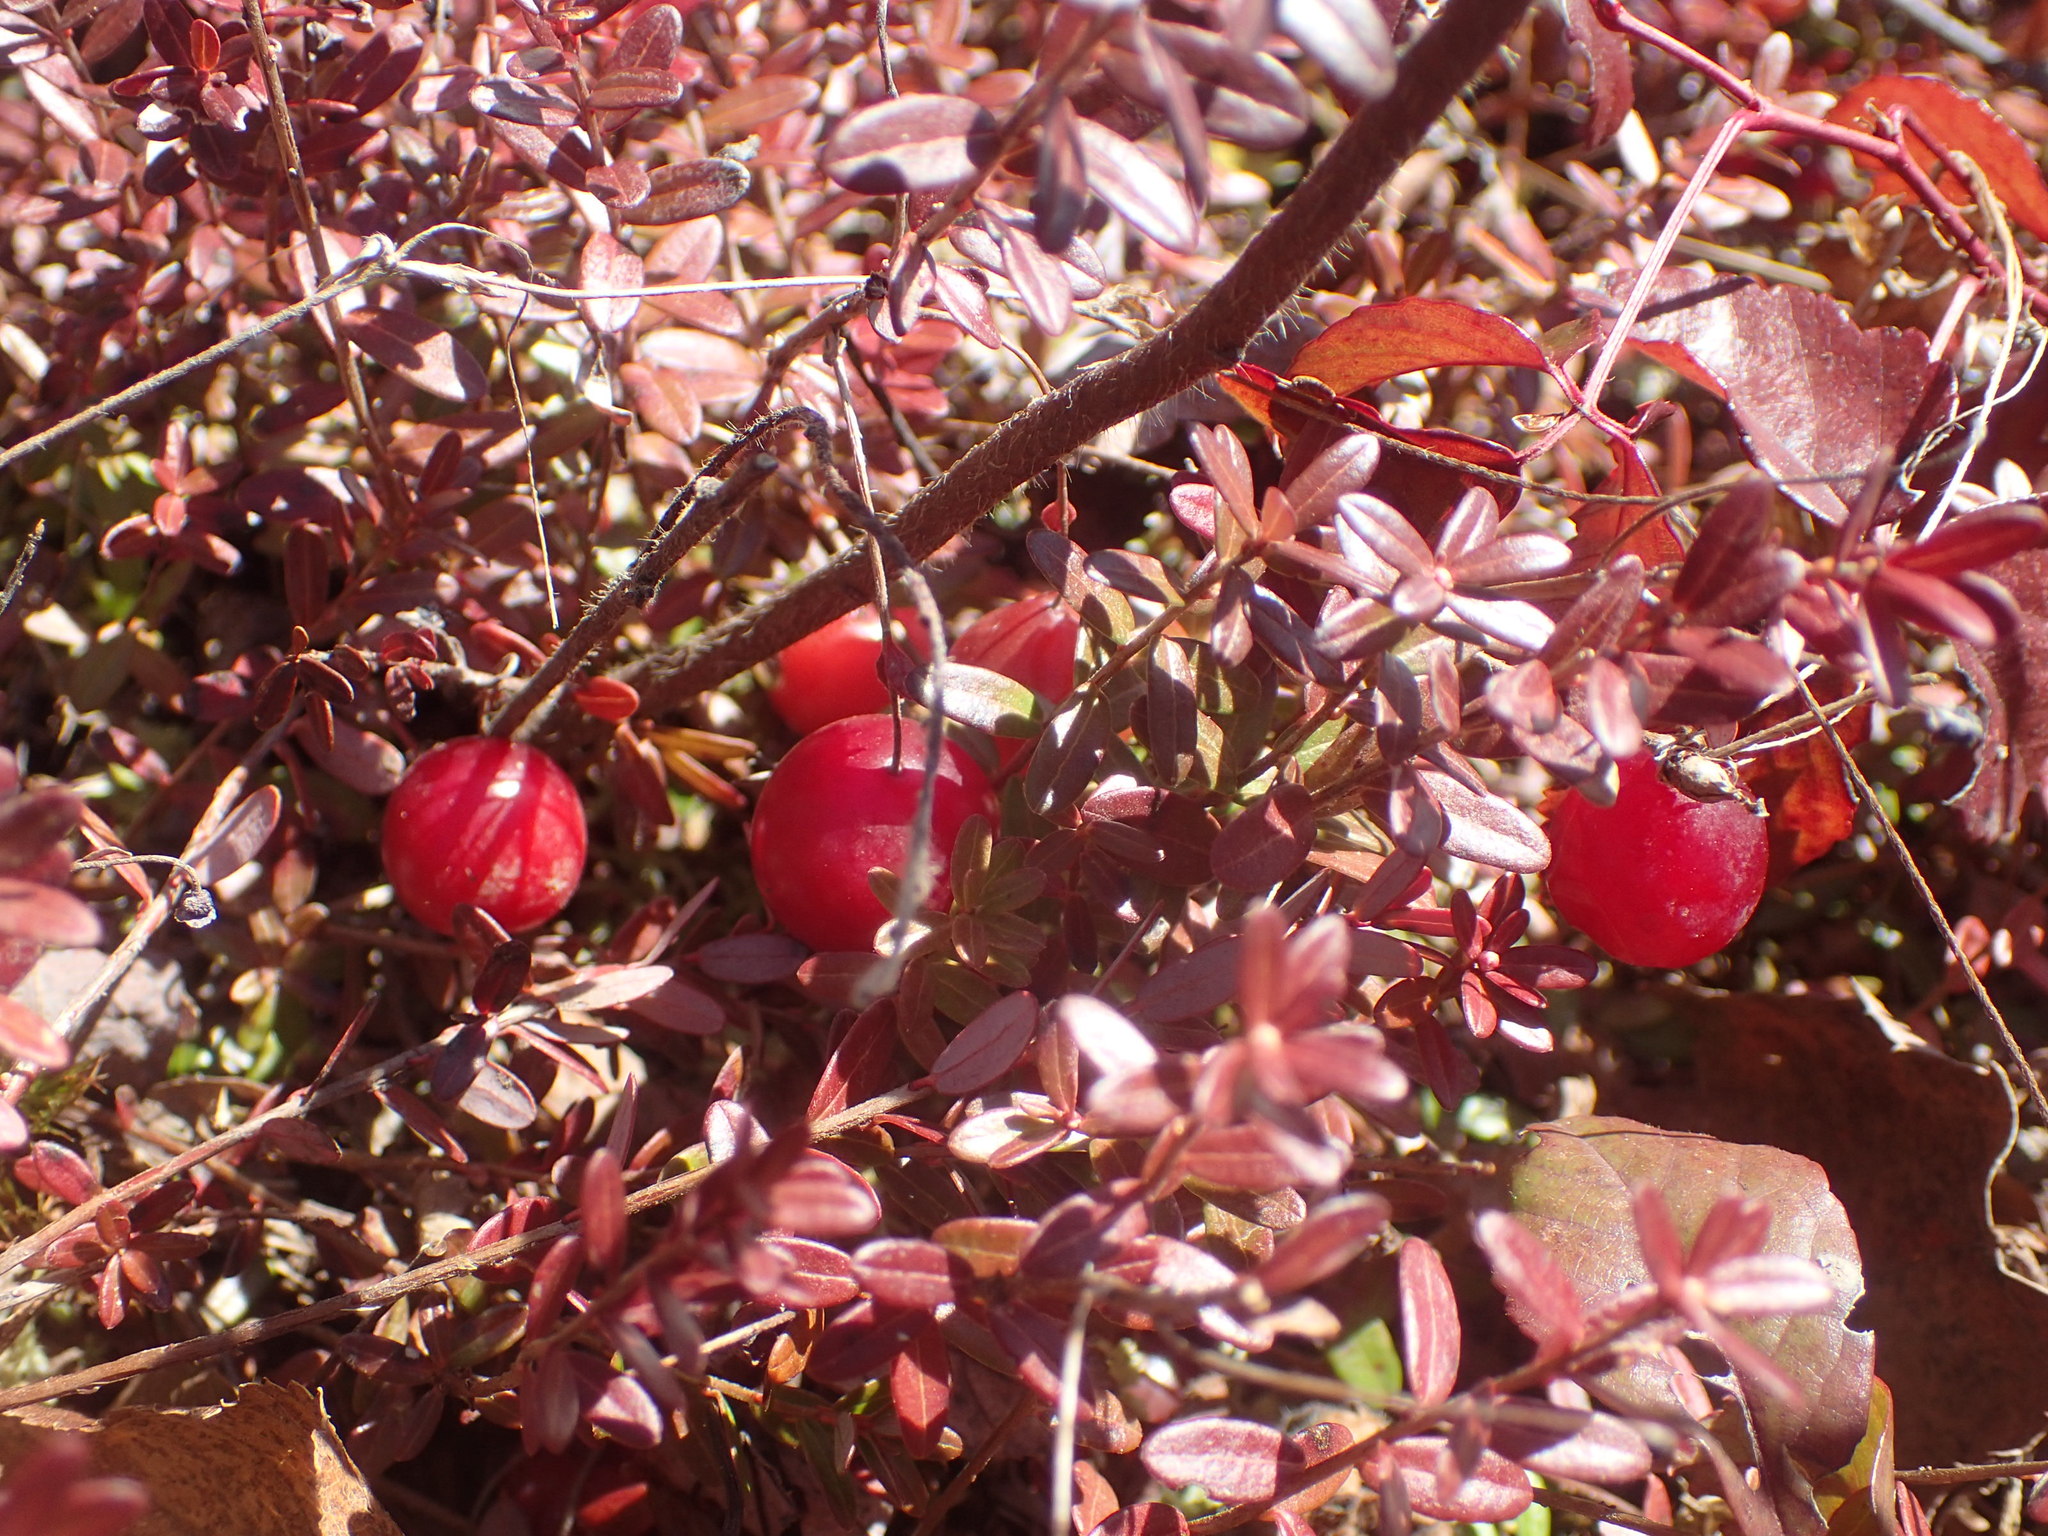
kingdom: Plantae
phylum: Tracheophyta
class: Magnoliopsida
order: Ericales
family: Ericaceae
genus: Vaccinium
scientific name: Vaccinium macrocarpon
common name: American cranberry
